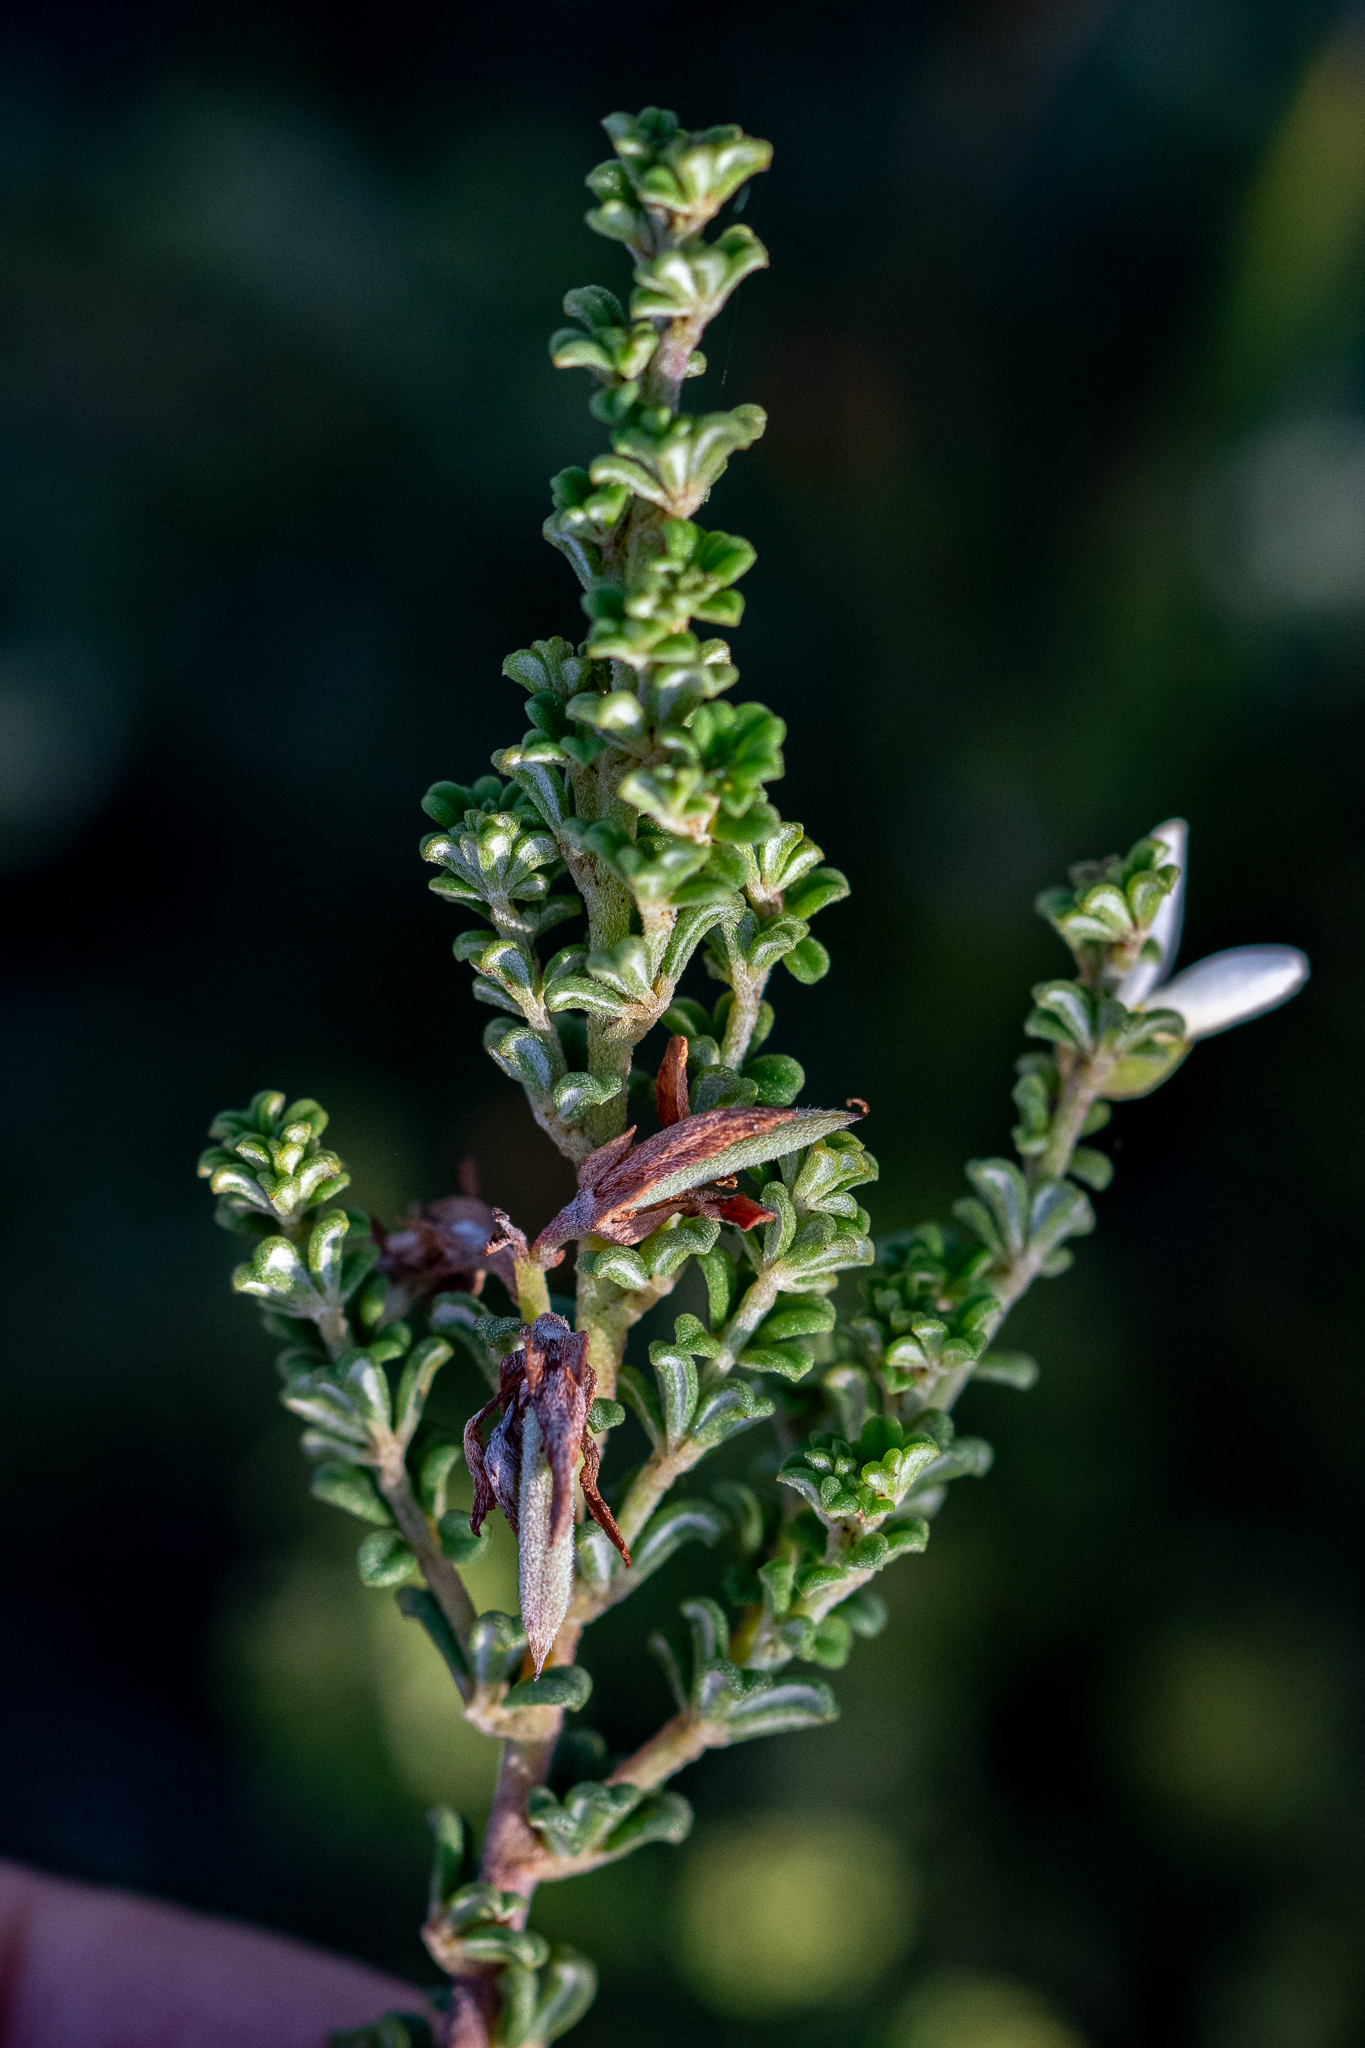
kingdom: Plantae
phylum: Tracheophyta
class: Magnoliopsida
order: Fabales
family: Fabaceae
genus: Indigofera
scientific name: Indigofera hamulosa
